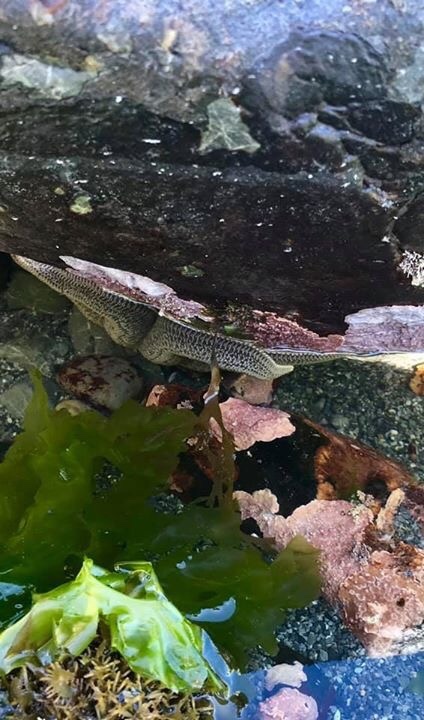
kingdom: Animalia
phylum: Echinodermata
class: Asteroidea
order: Forcipulatida
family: Stichasteridae
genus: Stichaster
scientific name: Stichaster australis
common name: Reef starfish
